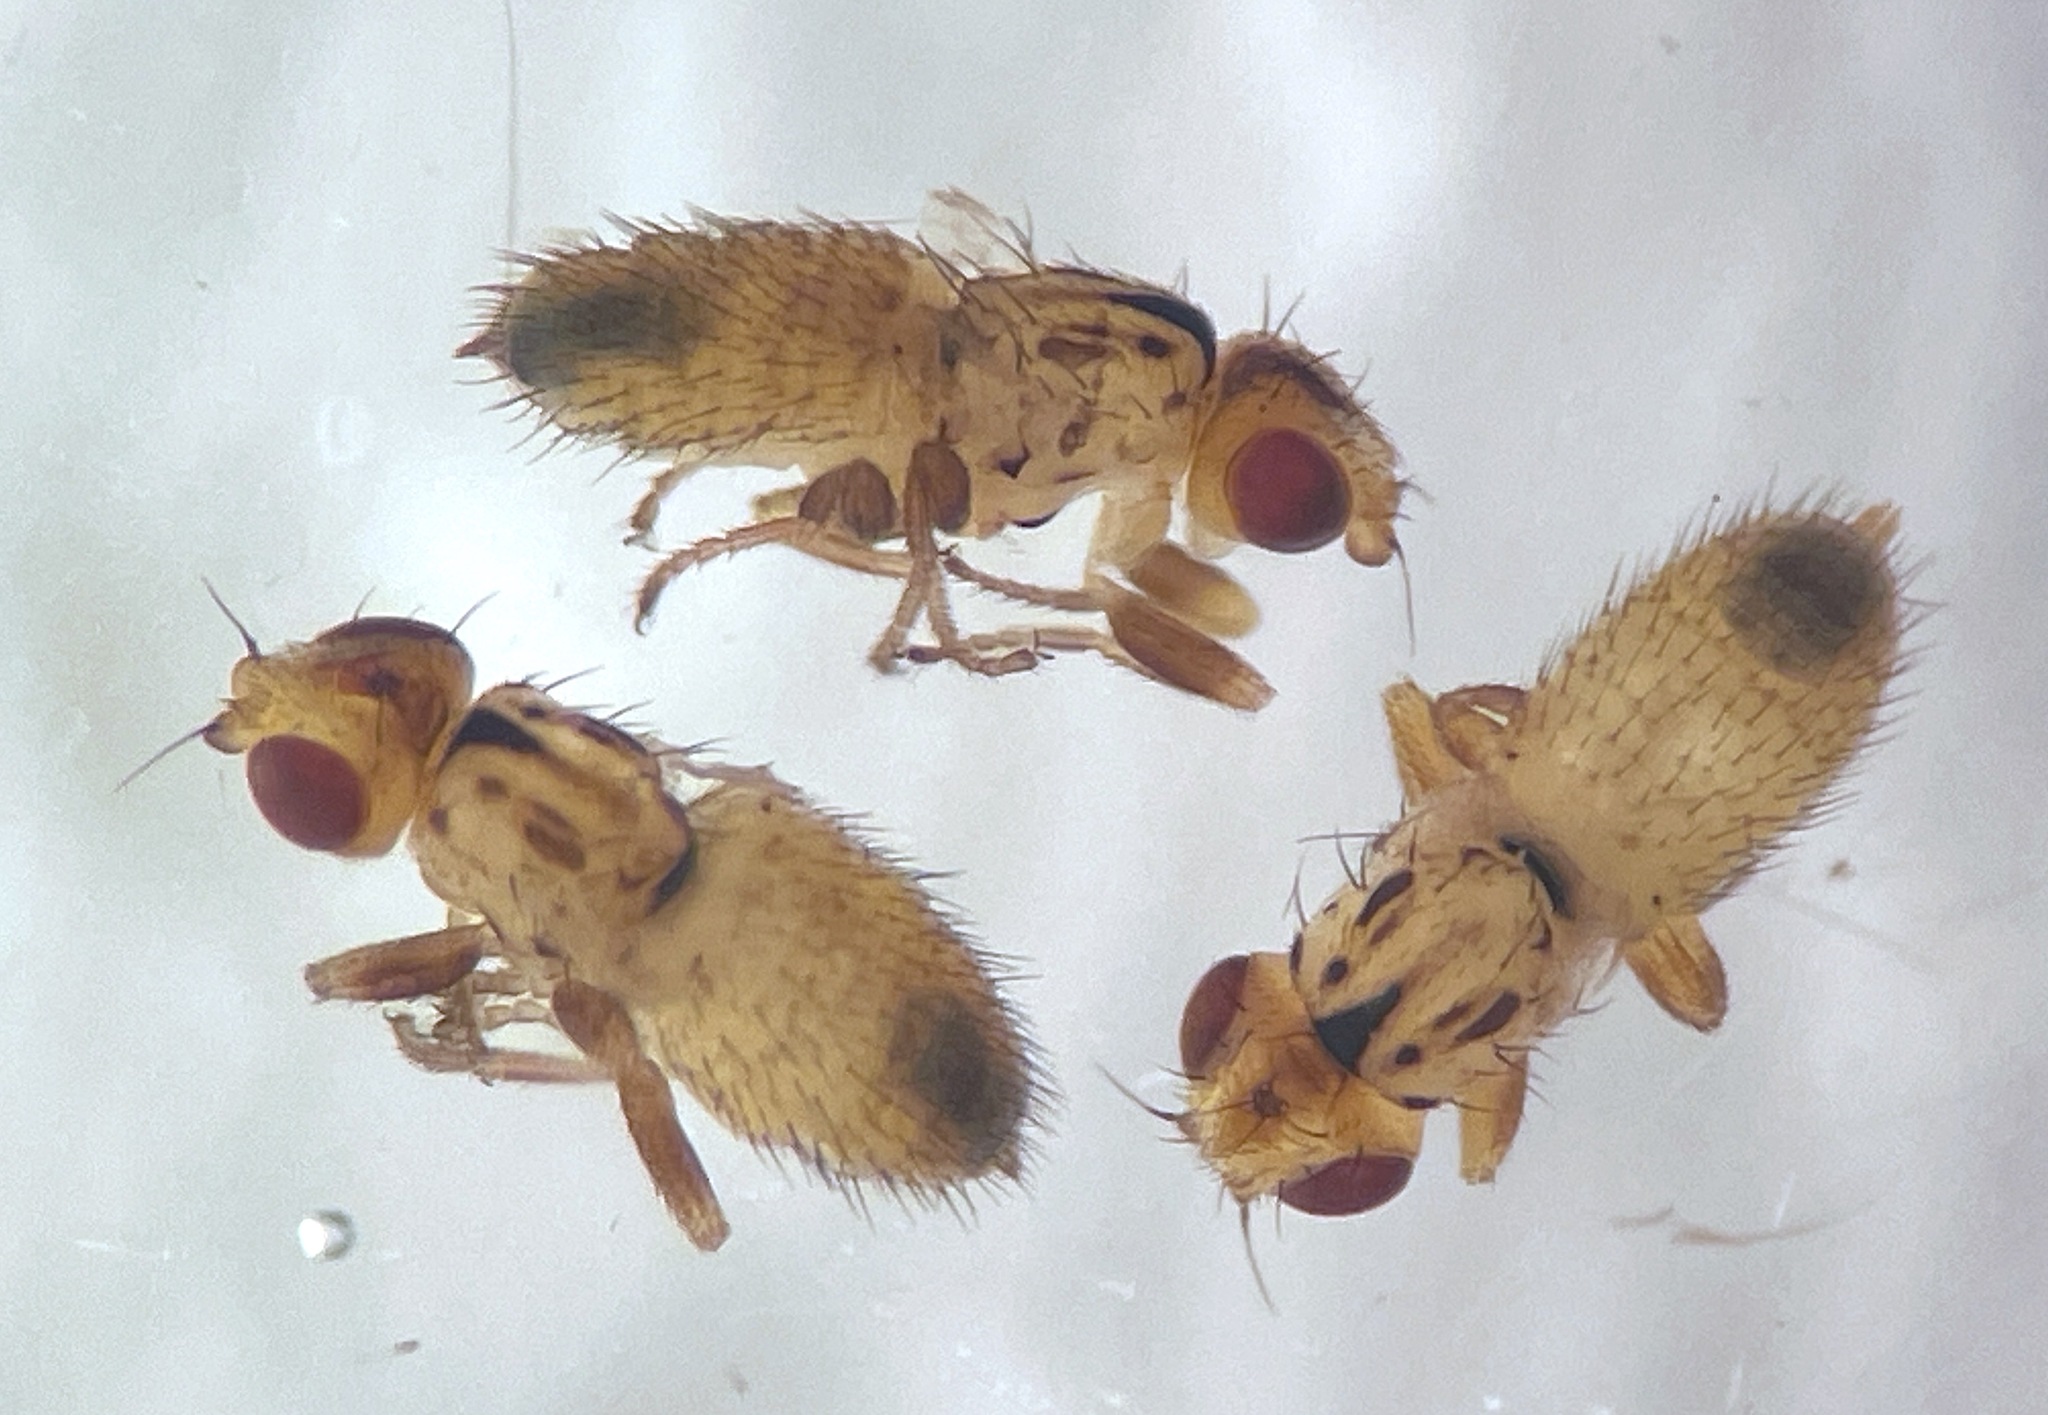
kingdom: Animalia
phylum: Arthropoda
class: Insecta
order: Diptera
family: Chloropidae
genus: Diplotoxa
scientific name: Diplotoxa moorei
